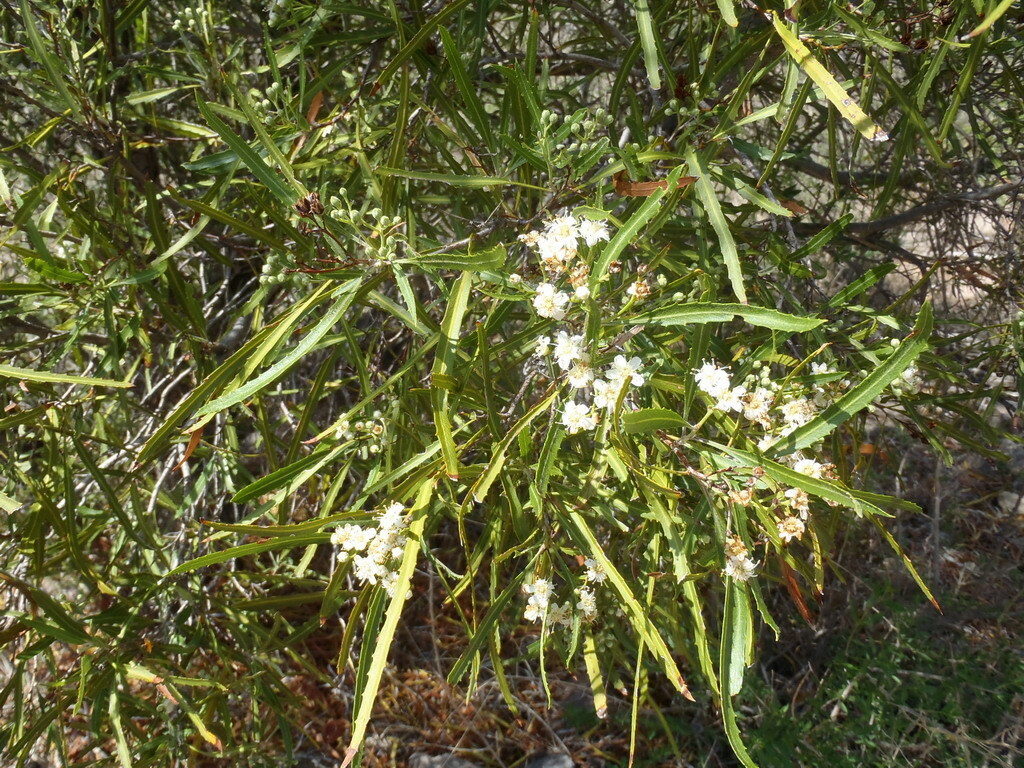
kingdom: Plantae
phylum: Tracheophyta
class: Magnoliopsida
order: Rosales
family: Rosaceae
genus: Vauquelinia
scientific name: Vauquelinia corymbosa
